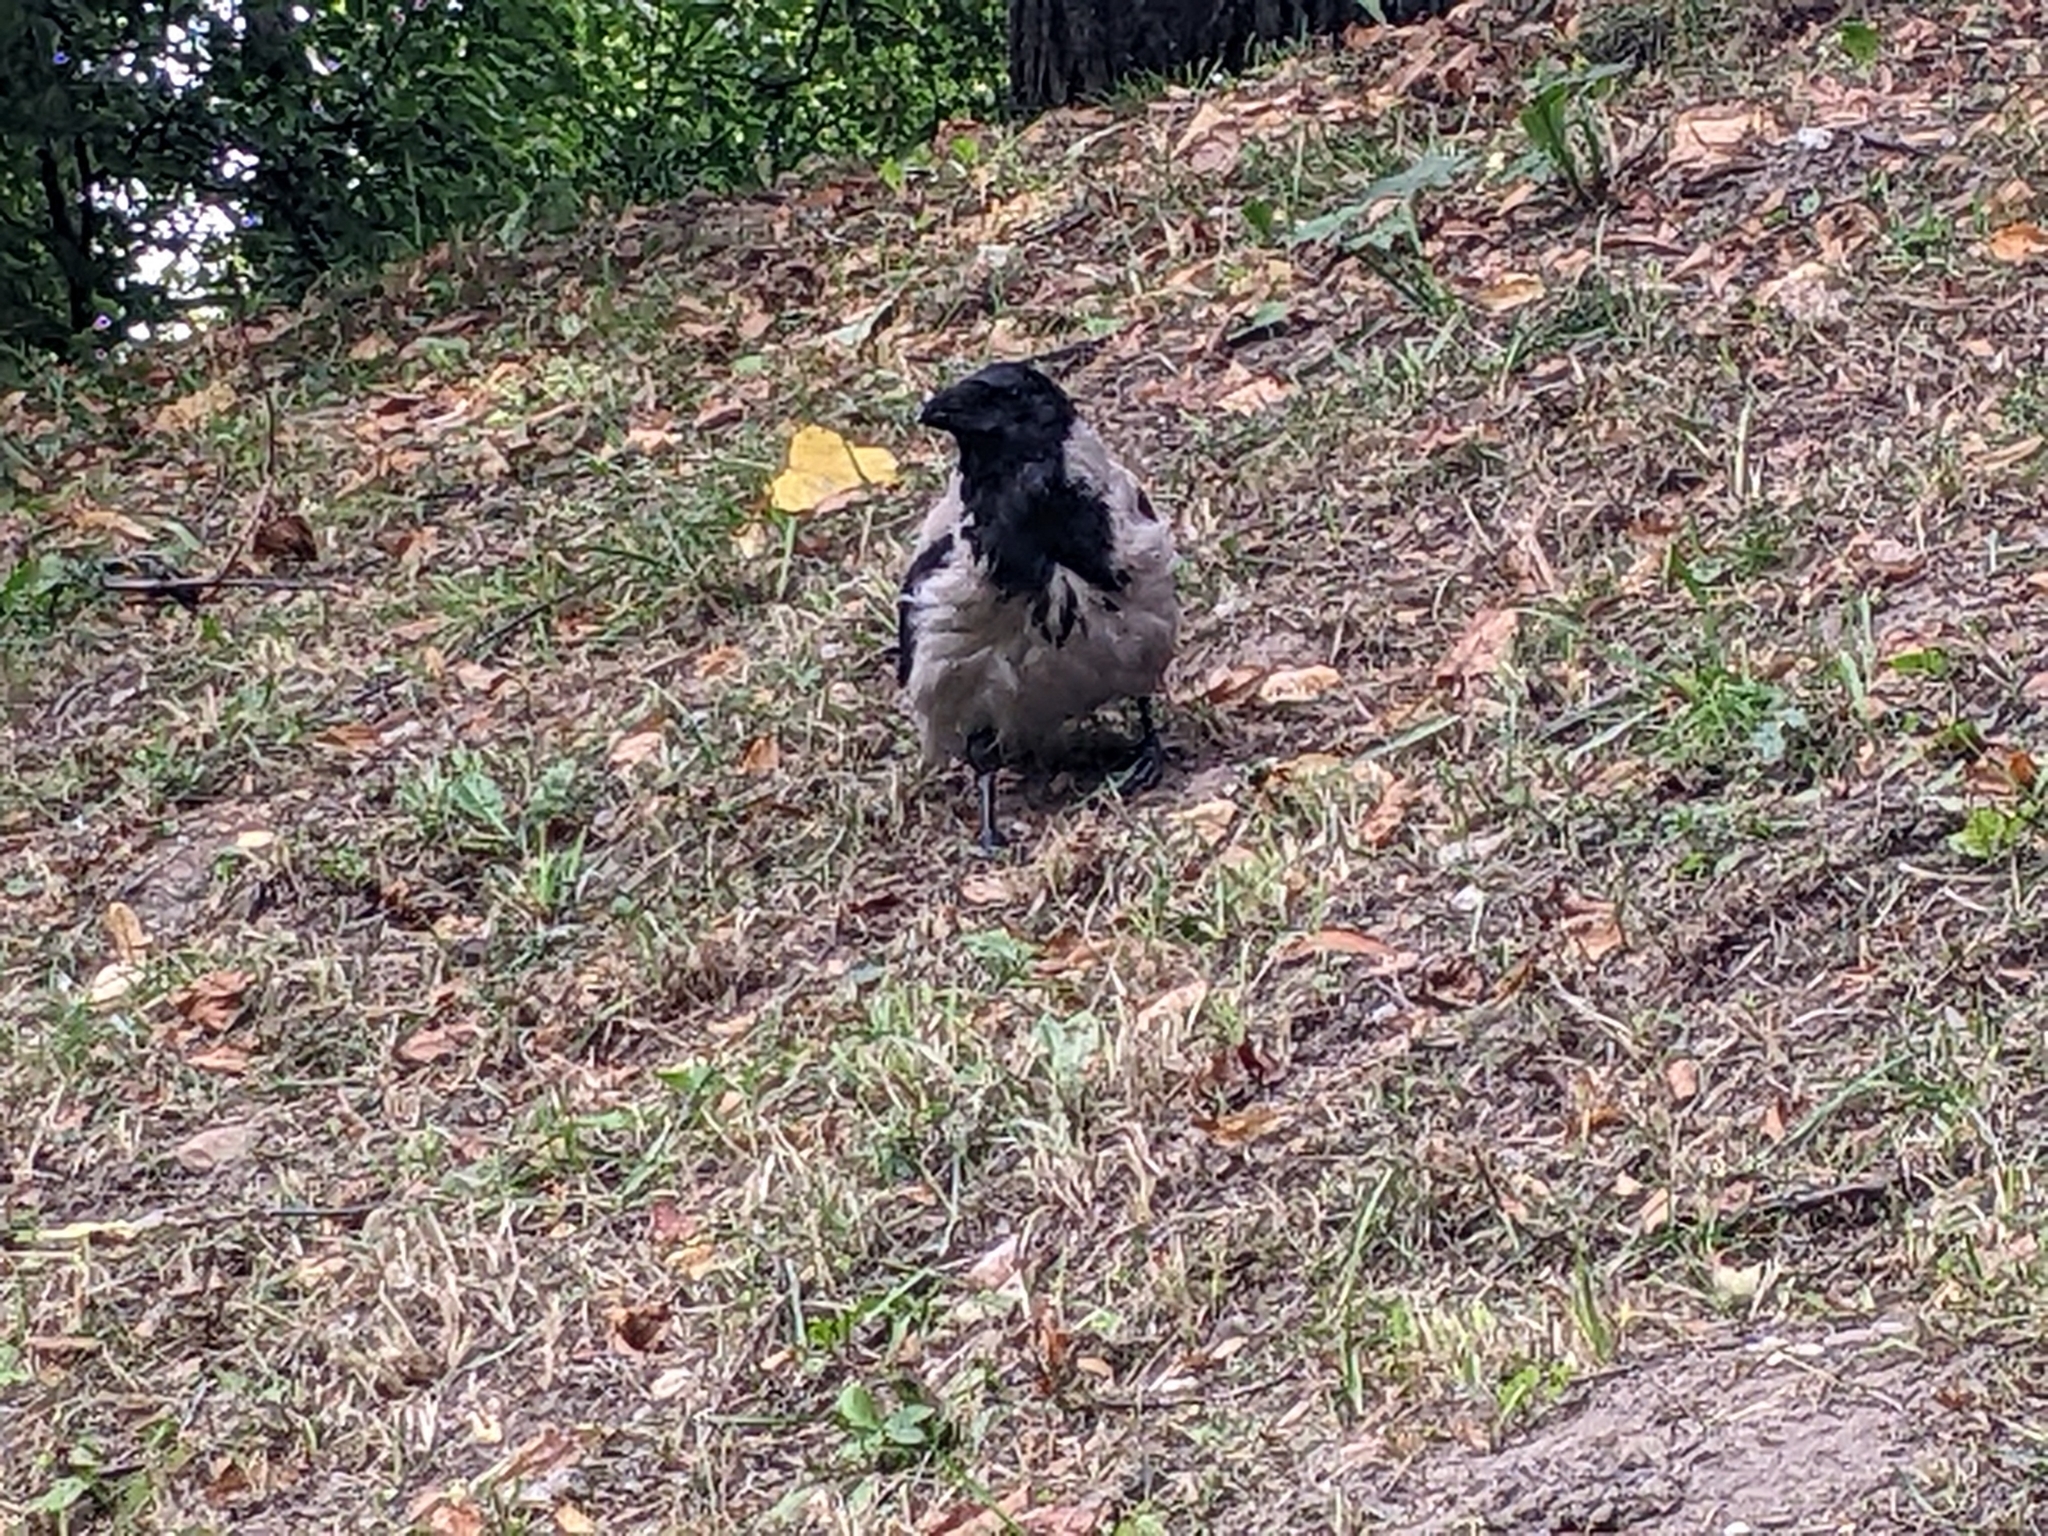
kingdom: Animalia
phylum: Chordata
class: Aves
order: Passeriformes
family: Corvidae
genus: Corvus
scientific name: Corvus cornix
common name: Hooded crow
